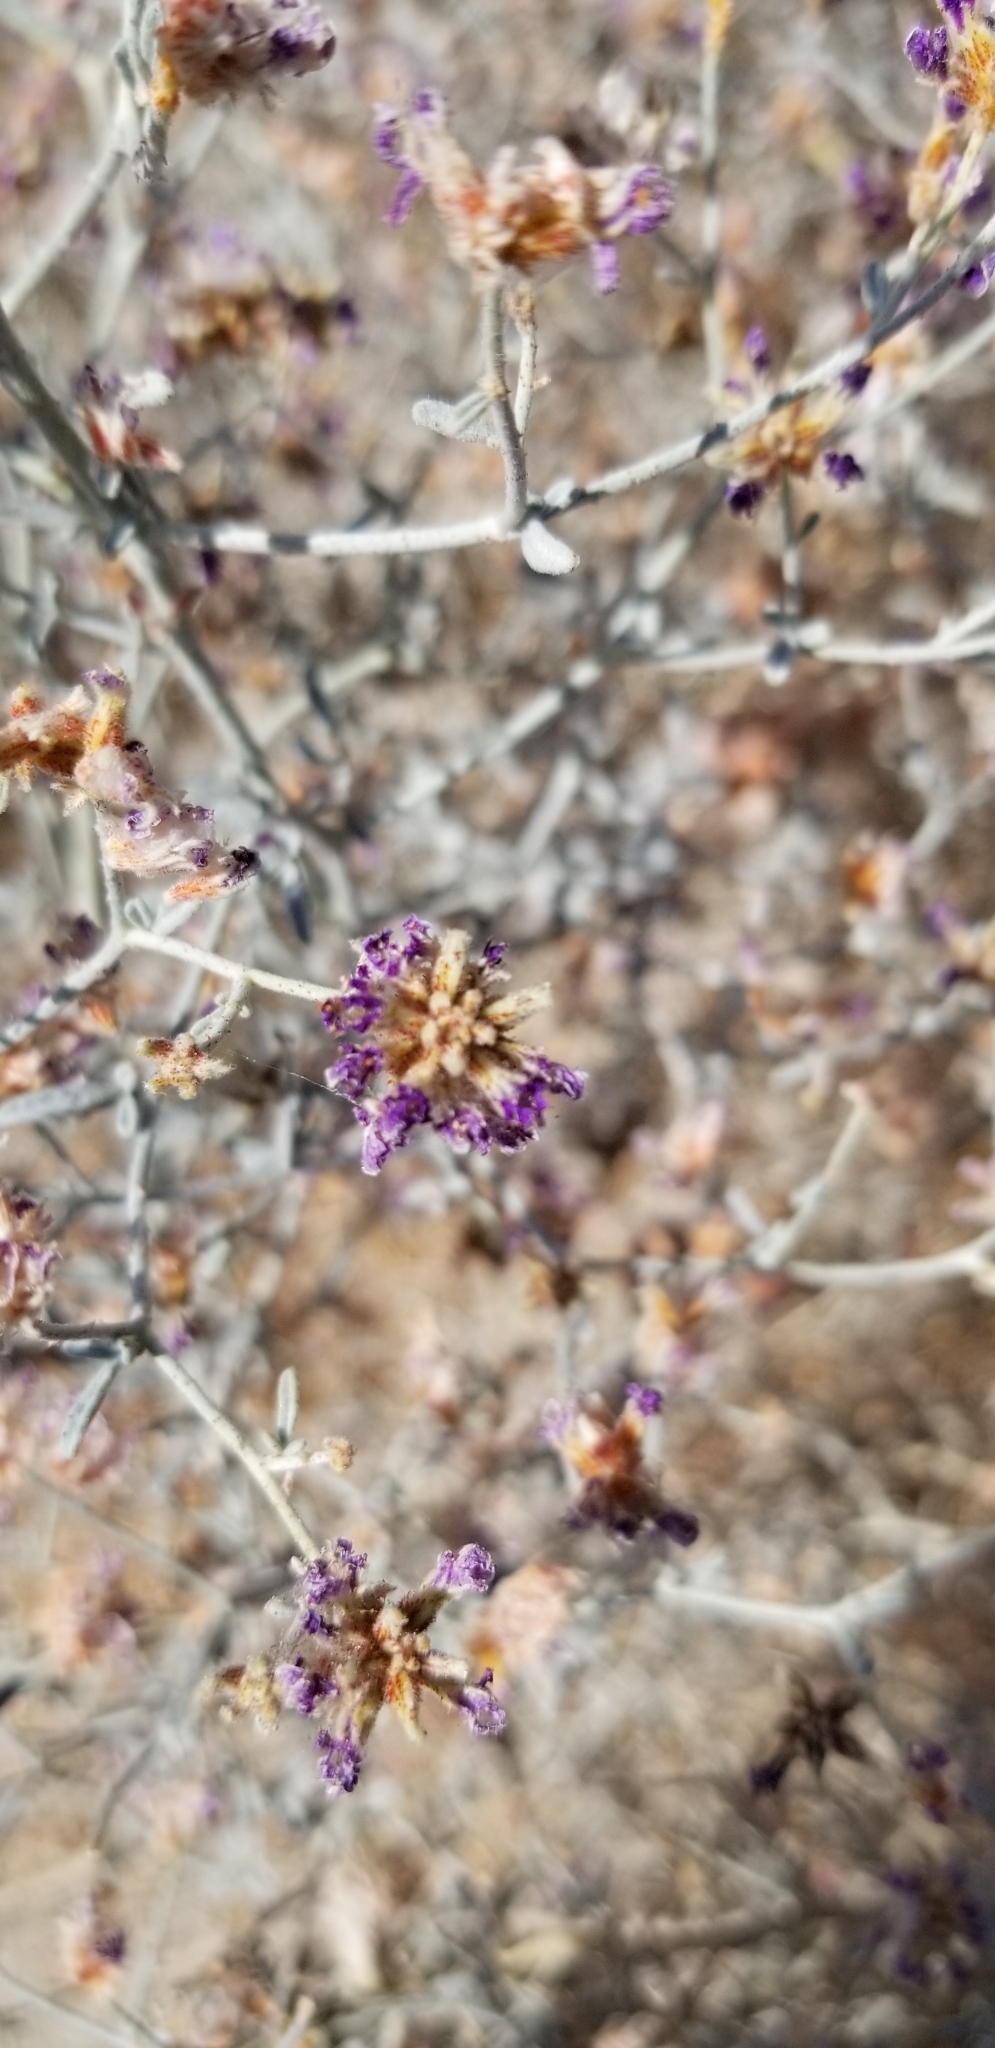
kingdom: Plantae
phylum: Tracheophyta
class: Magnoliopsida
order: Fabales
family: Fabaceae
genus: Psorothamnus
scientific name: Psorothamnus emoryi
